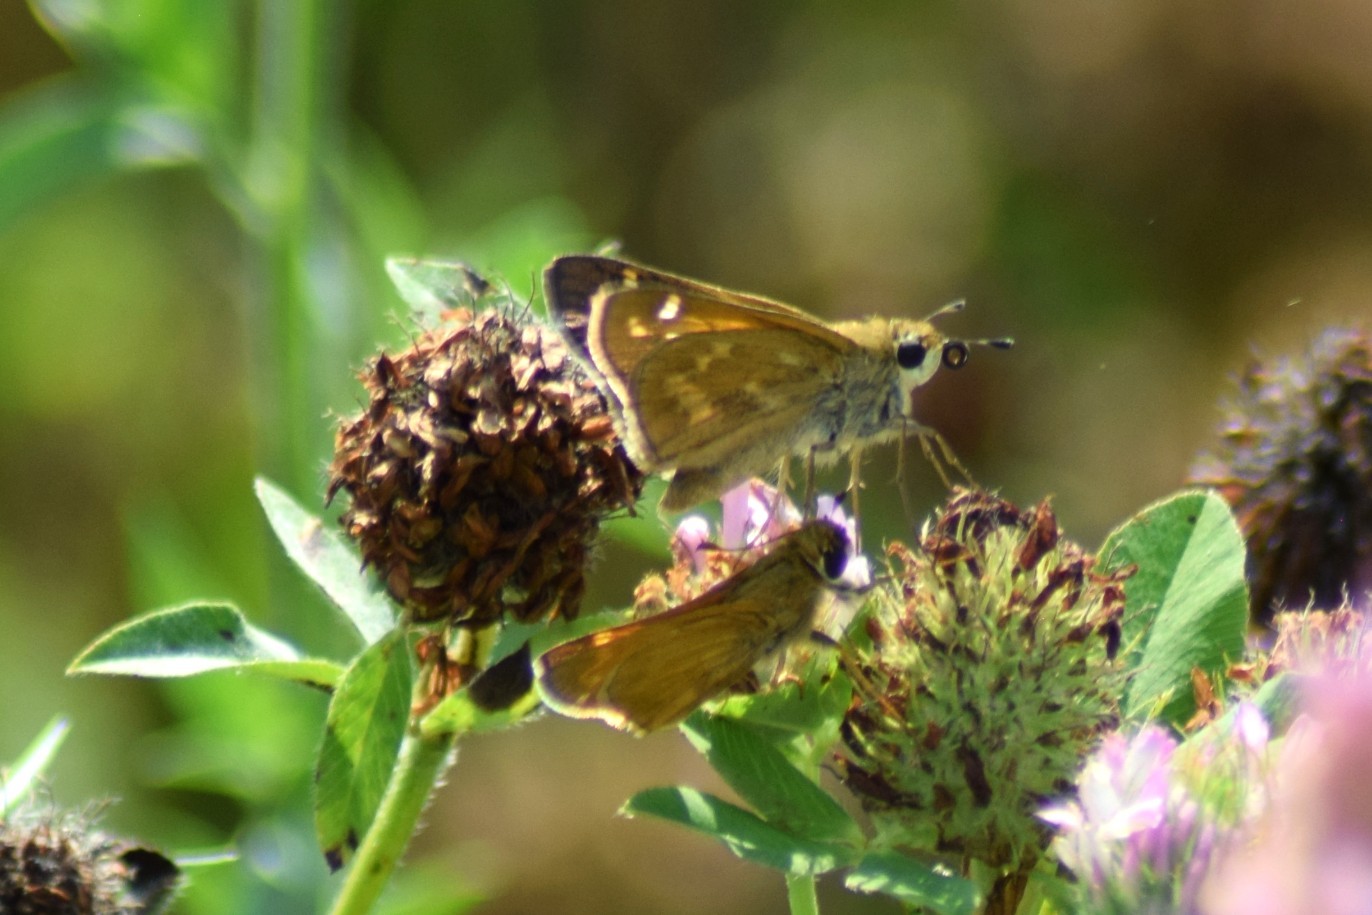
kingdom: Animalia
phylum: Arthropoda
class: Insecta
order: Lepidoptera
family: Hesperiidae
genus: Atalopedes
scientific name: Atalopedes
